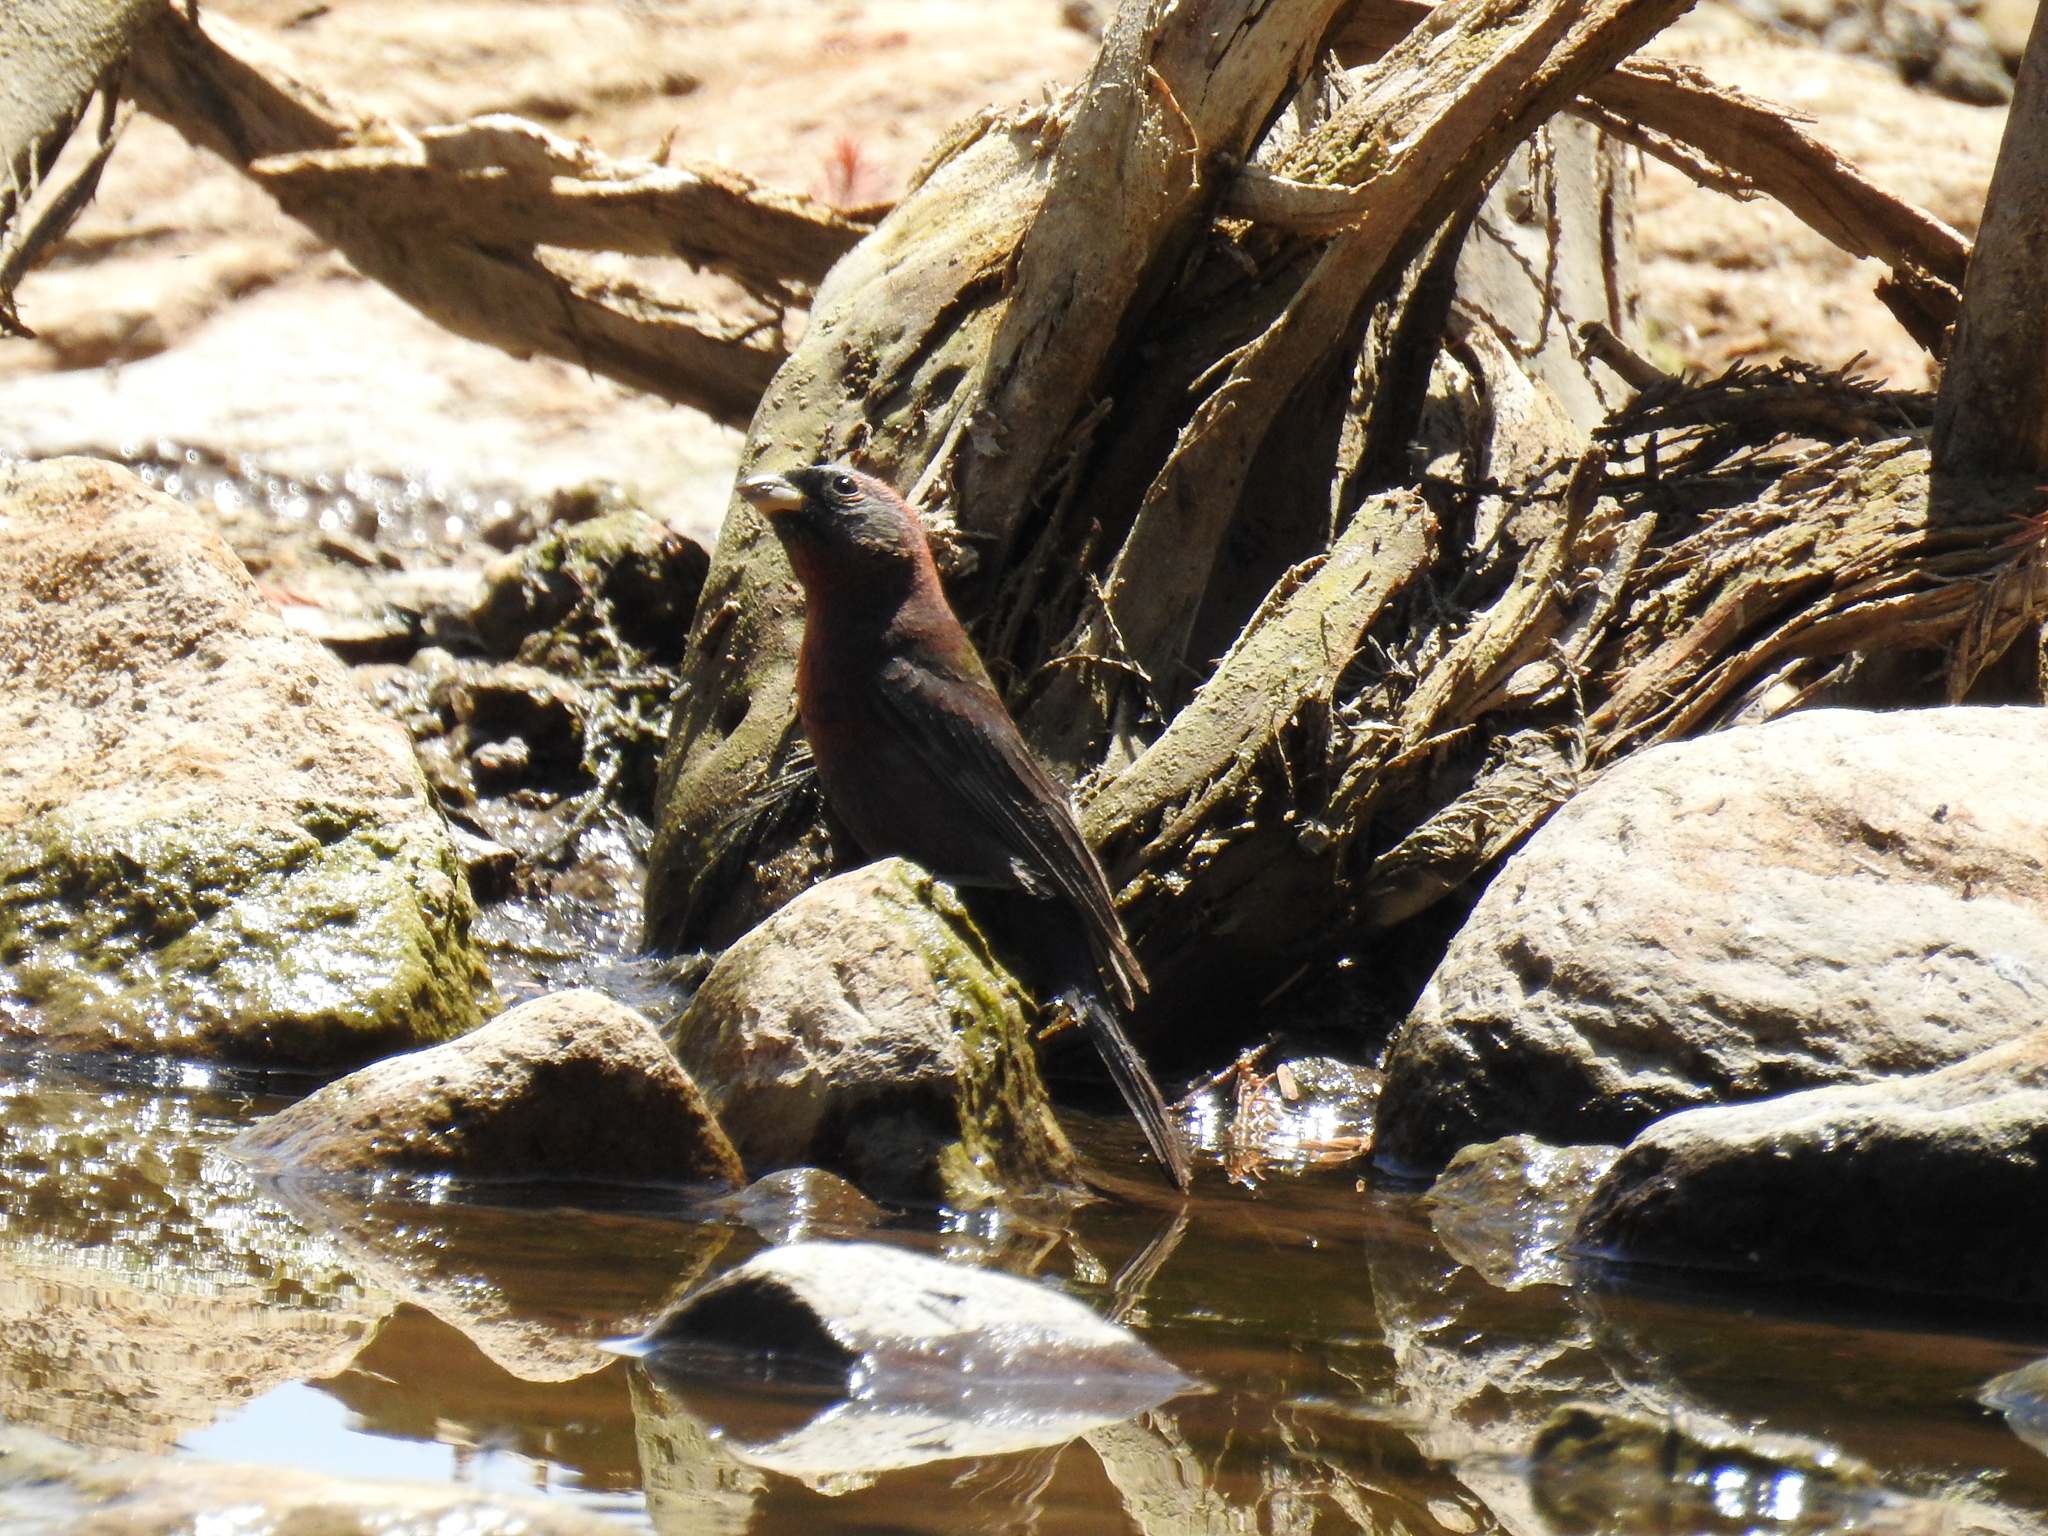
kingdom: Animalia
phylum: Chordata
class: Aves
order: Passeriformes
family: Cardinalidae
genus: Passerina
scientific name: Passerina versicolor
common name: Varied bunting
